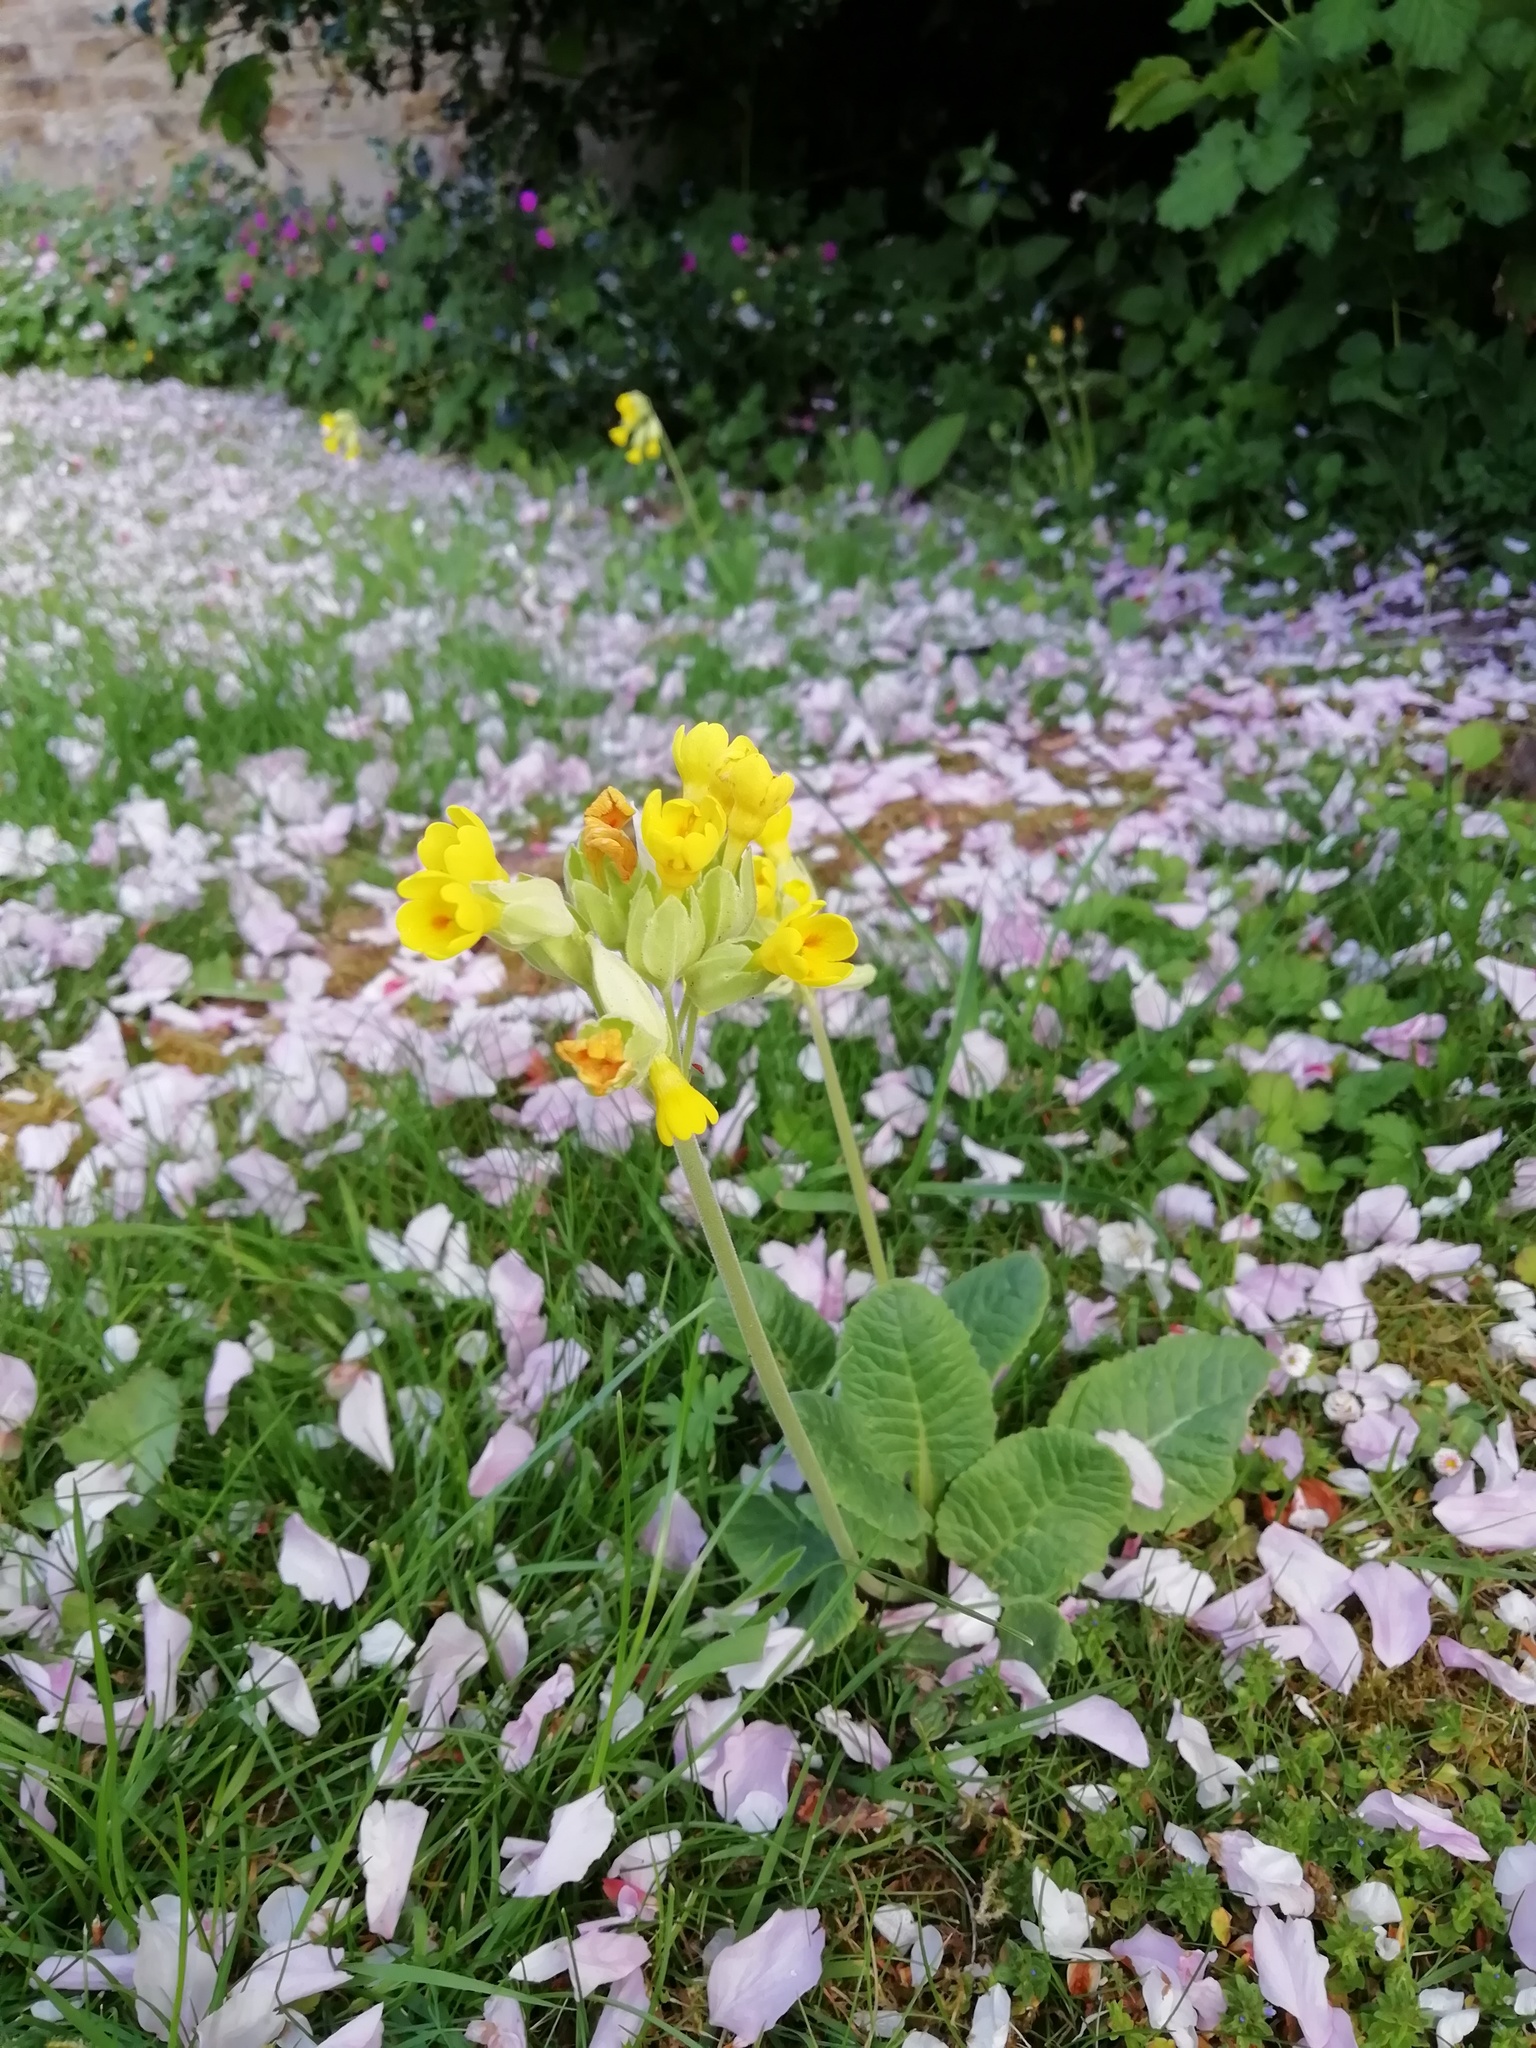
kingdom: Plantae
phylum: Tracheophyta
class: Magnoliopsida
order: Ericales
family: Primulaceae
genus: Primula
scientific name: Primula veris
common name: Cowslip
